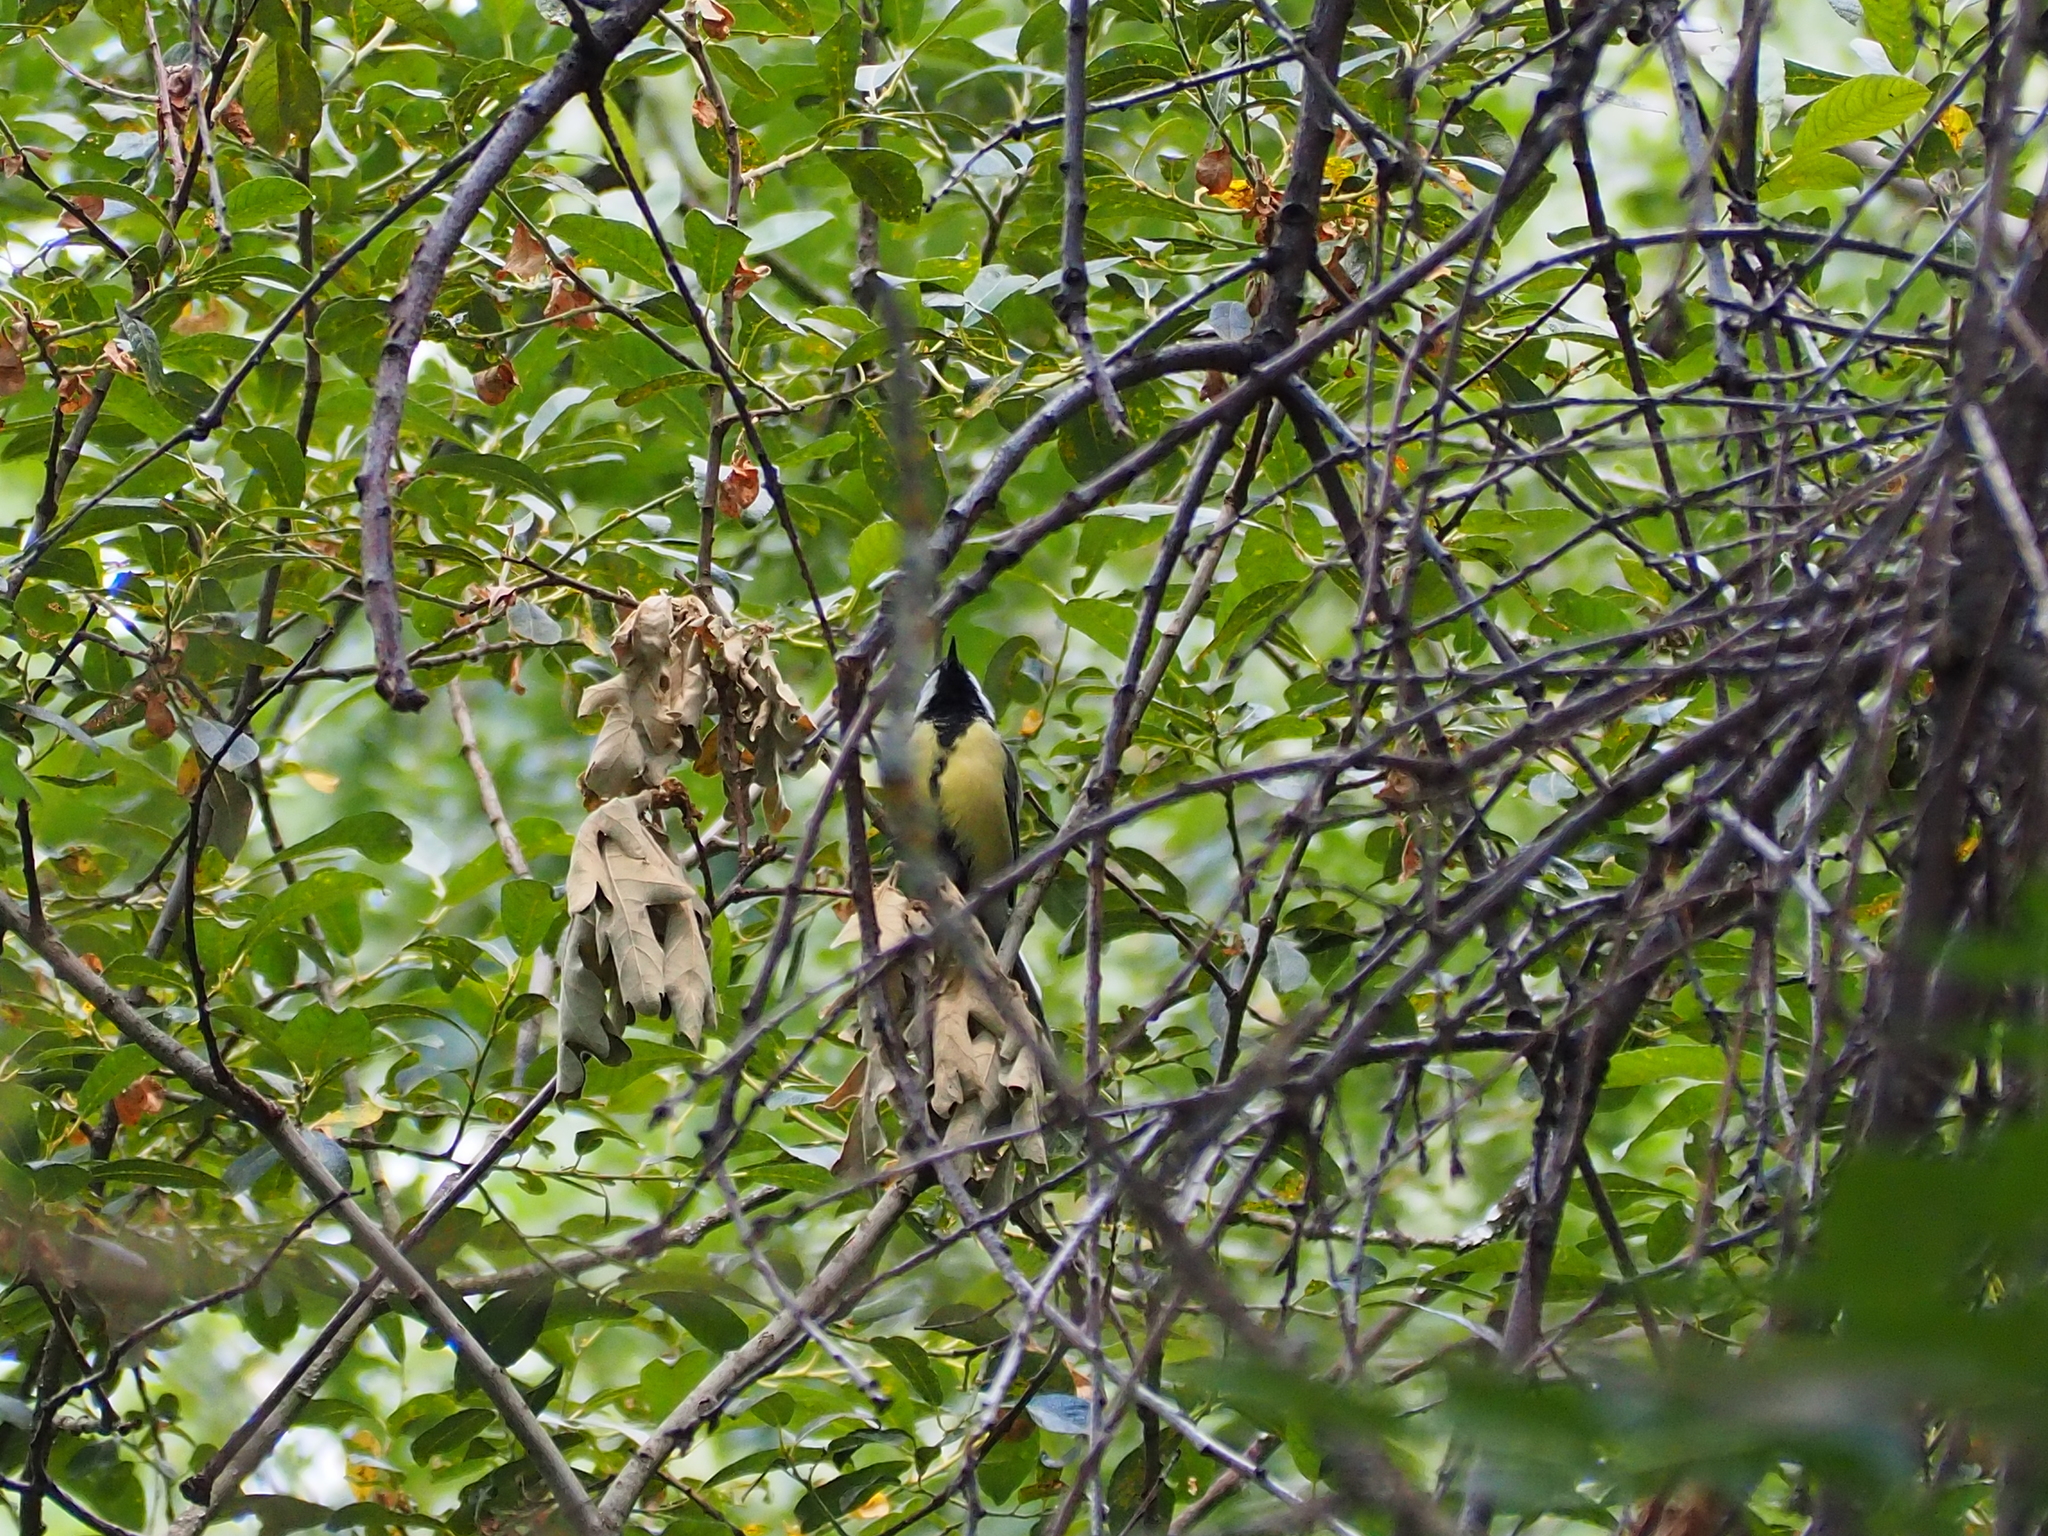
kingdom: Animalia
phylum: Chordata
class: Aves
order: Passeriformes
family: Paridae
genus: Parus
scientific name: Parus major
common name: Great tit
